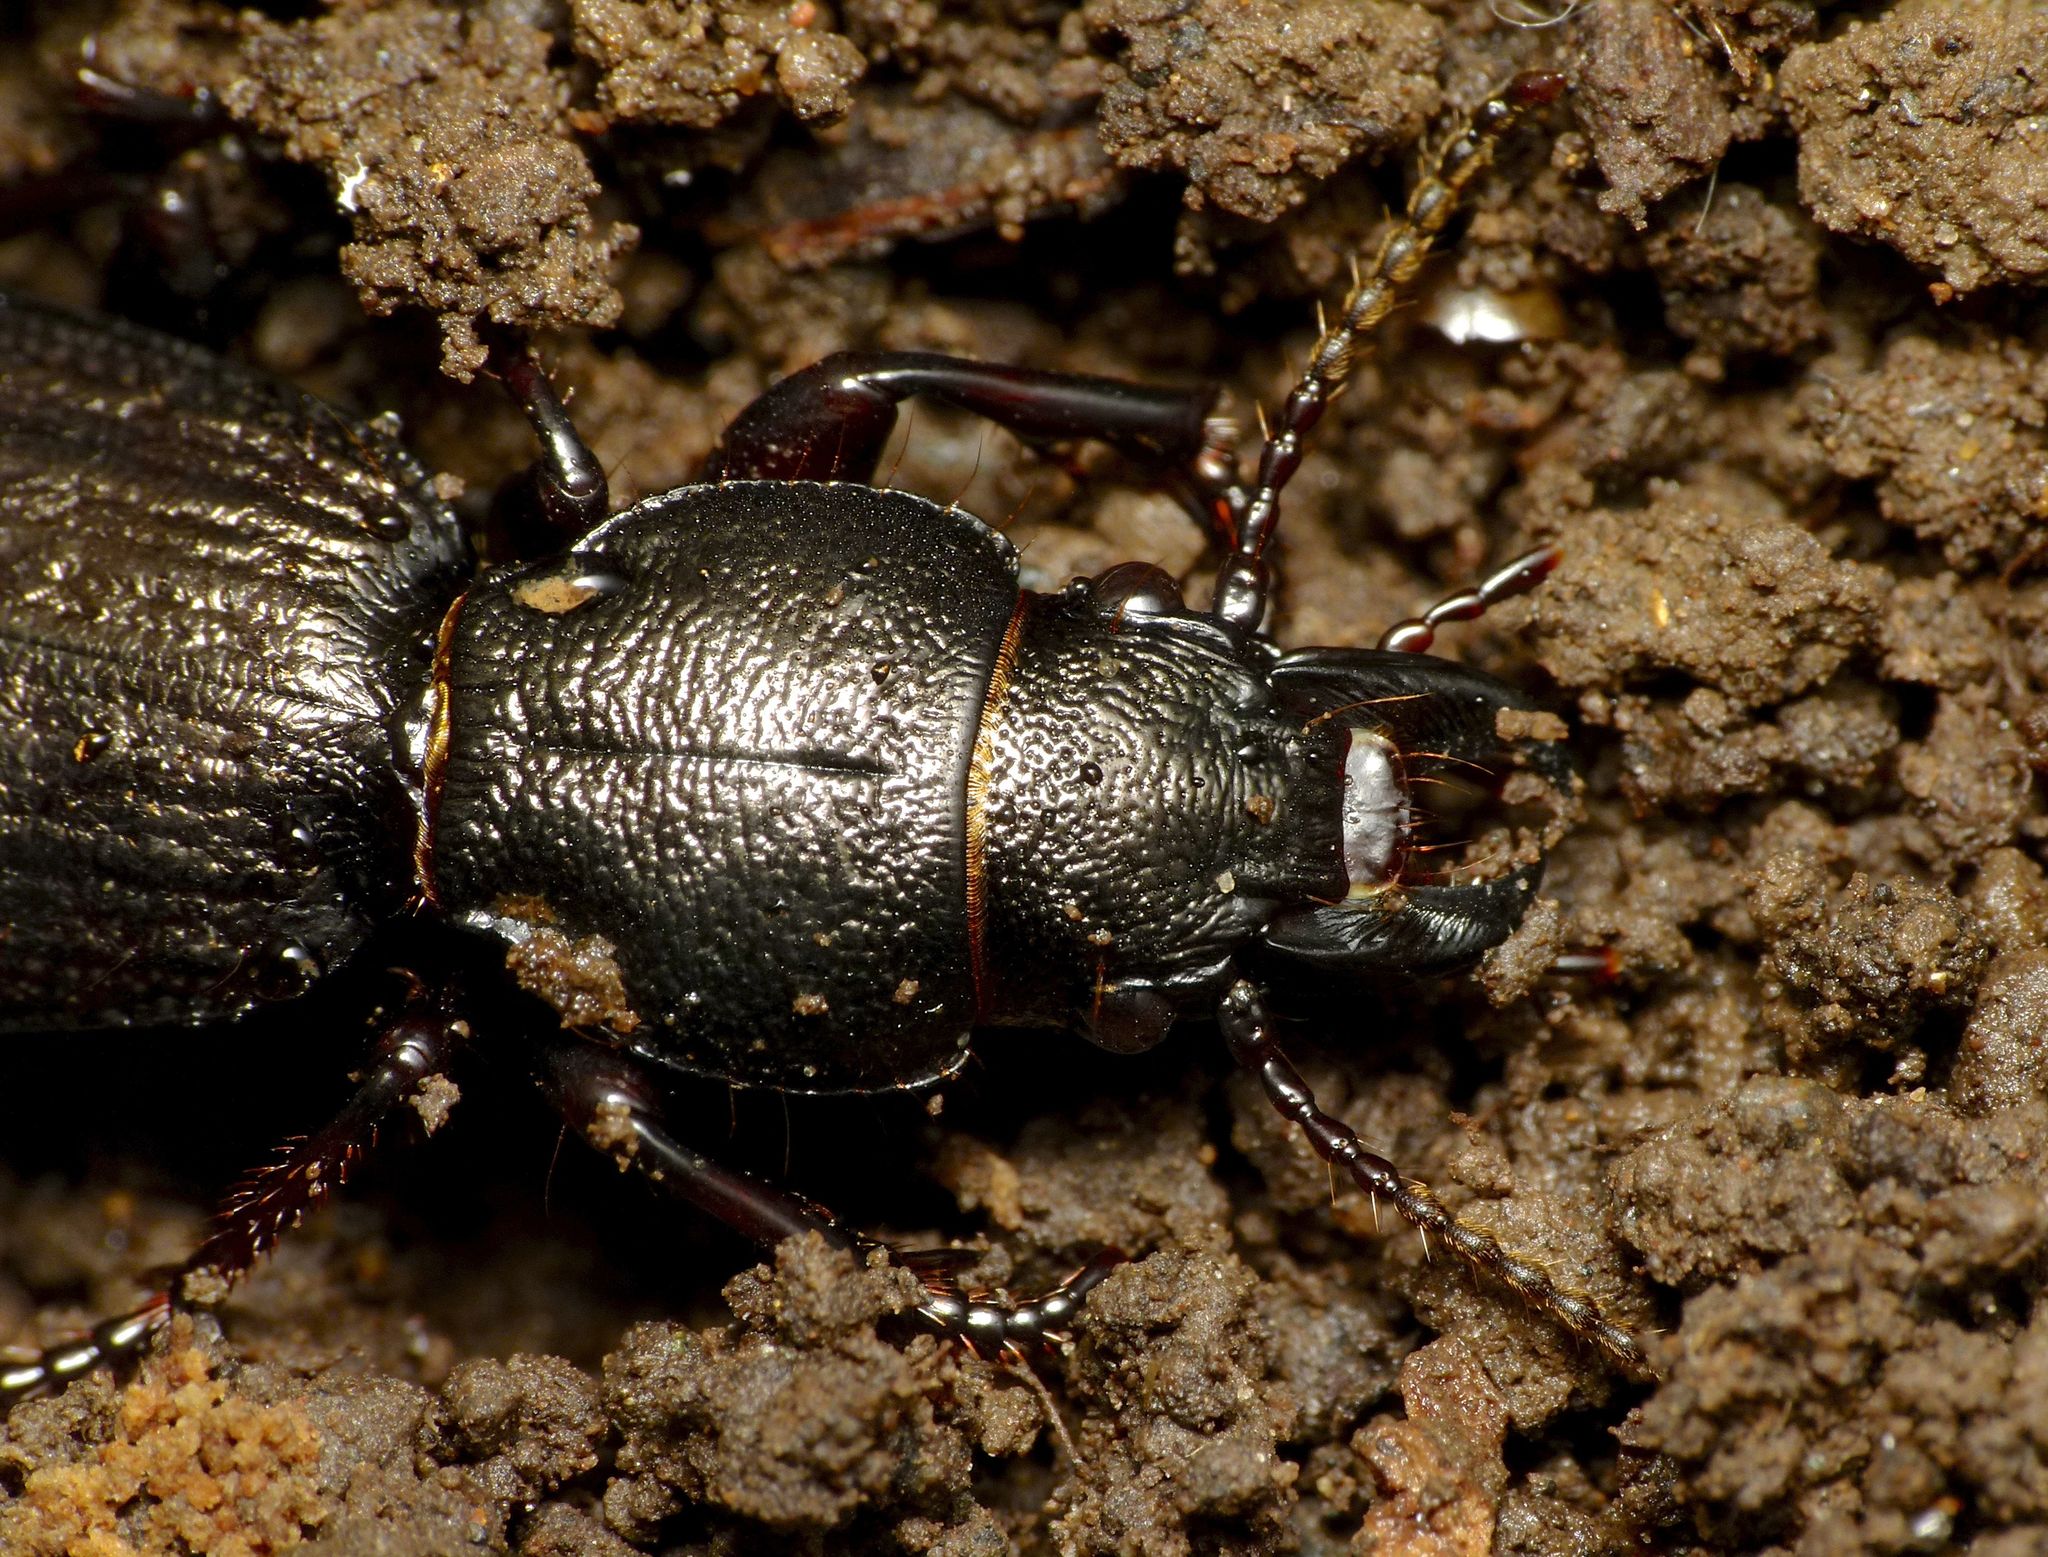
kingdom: Animalia
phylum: Arthropoda
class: Insecta
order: Coleoptera
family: Carabidae
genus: Mecodema
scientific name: Mecodema sculpturatum
